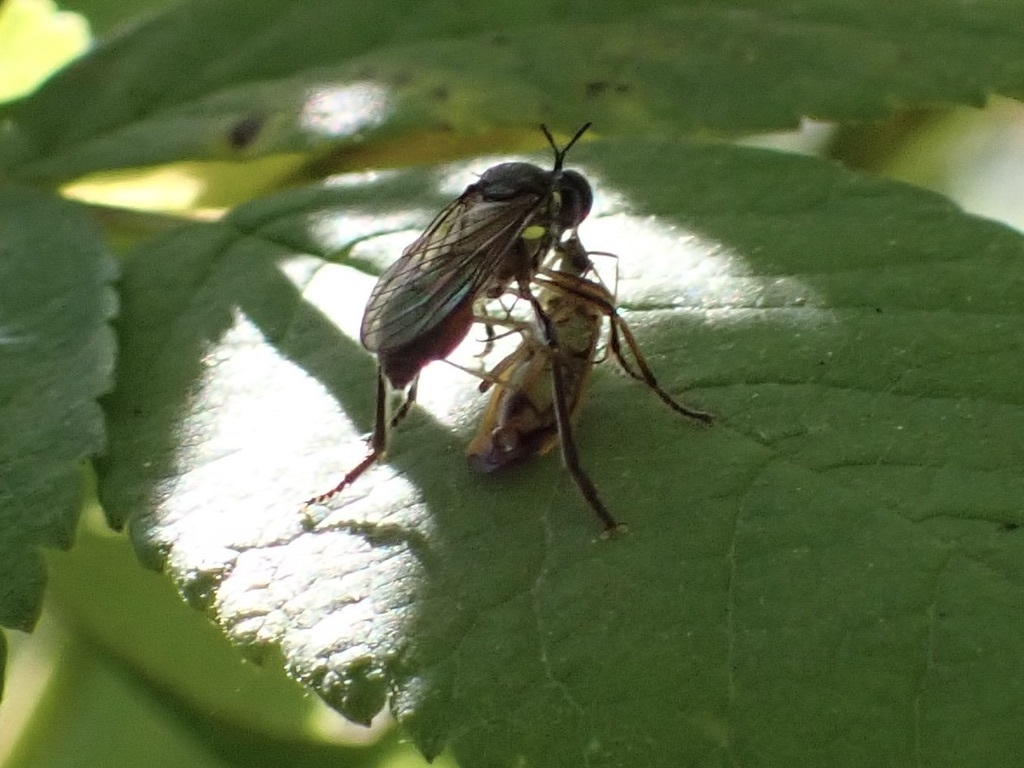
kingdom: Animalia
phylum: Arthropoda
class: Insecta
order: Diptera
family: Asilidae
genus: Dioctria
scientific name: Dioctria hyalipennis
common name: Stripe-legged robberfly
